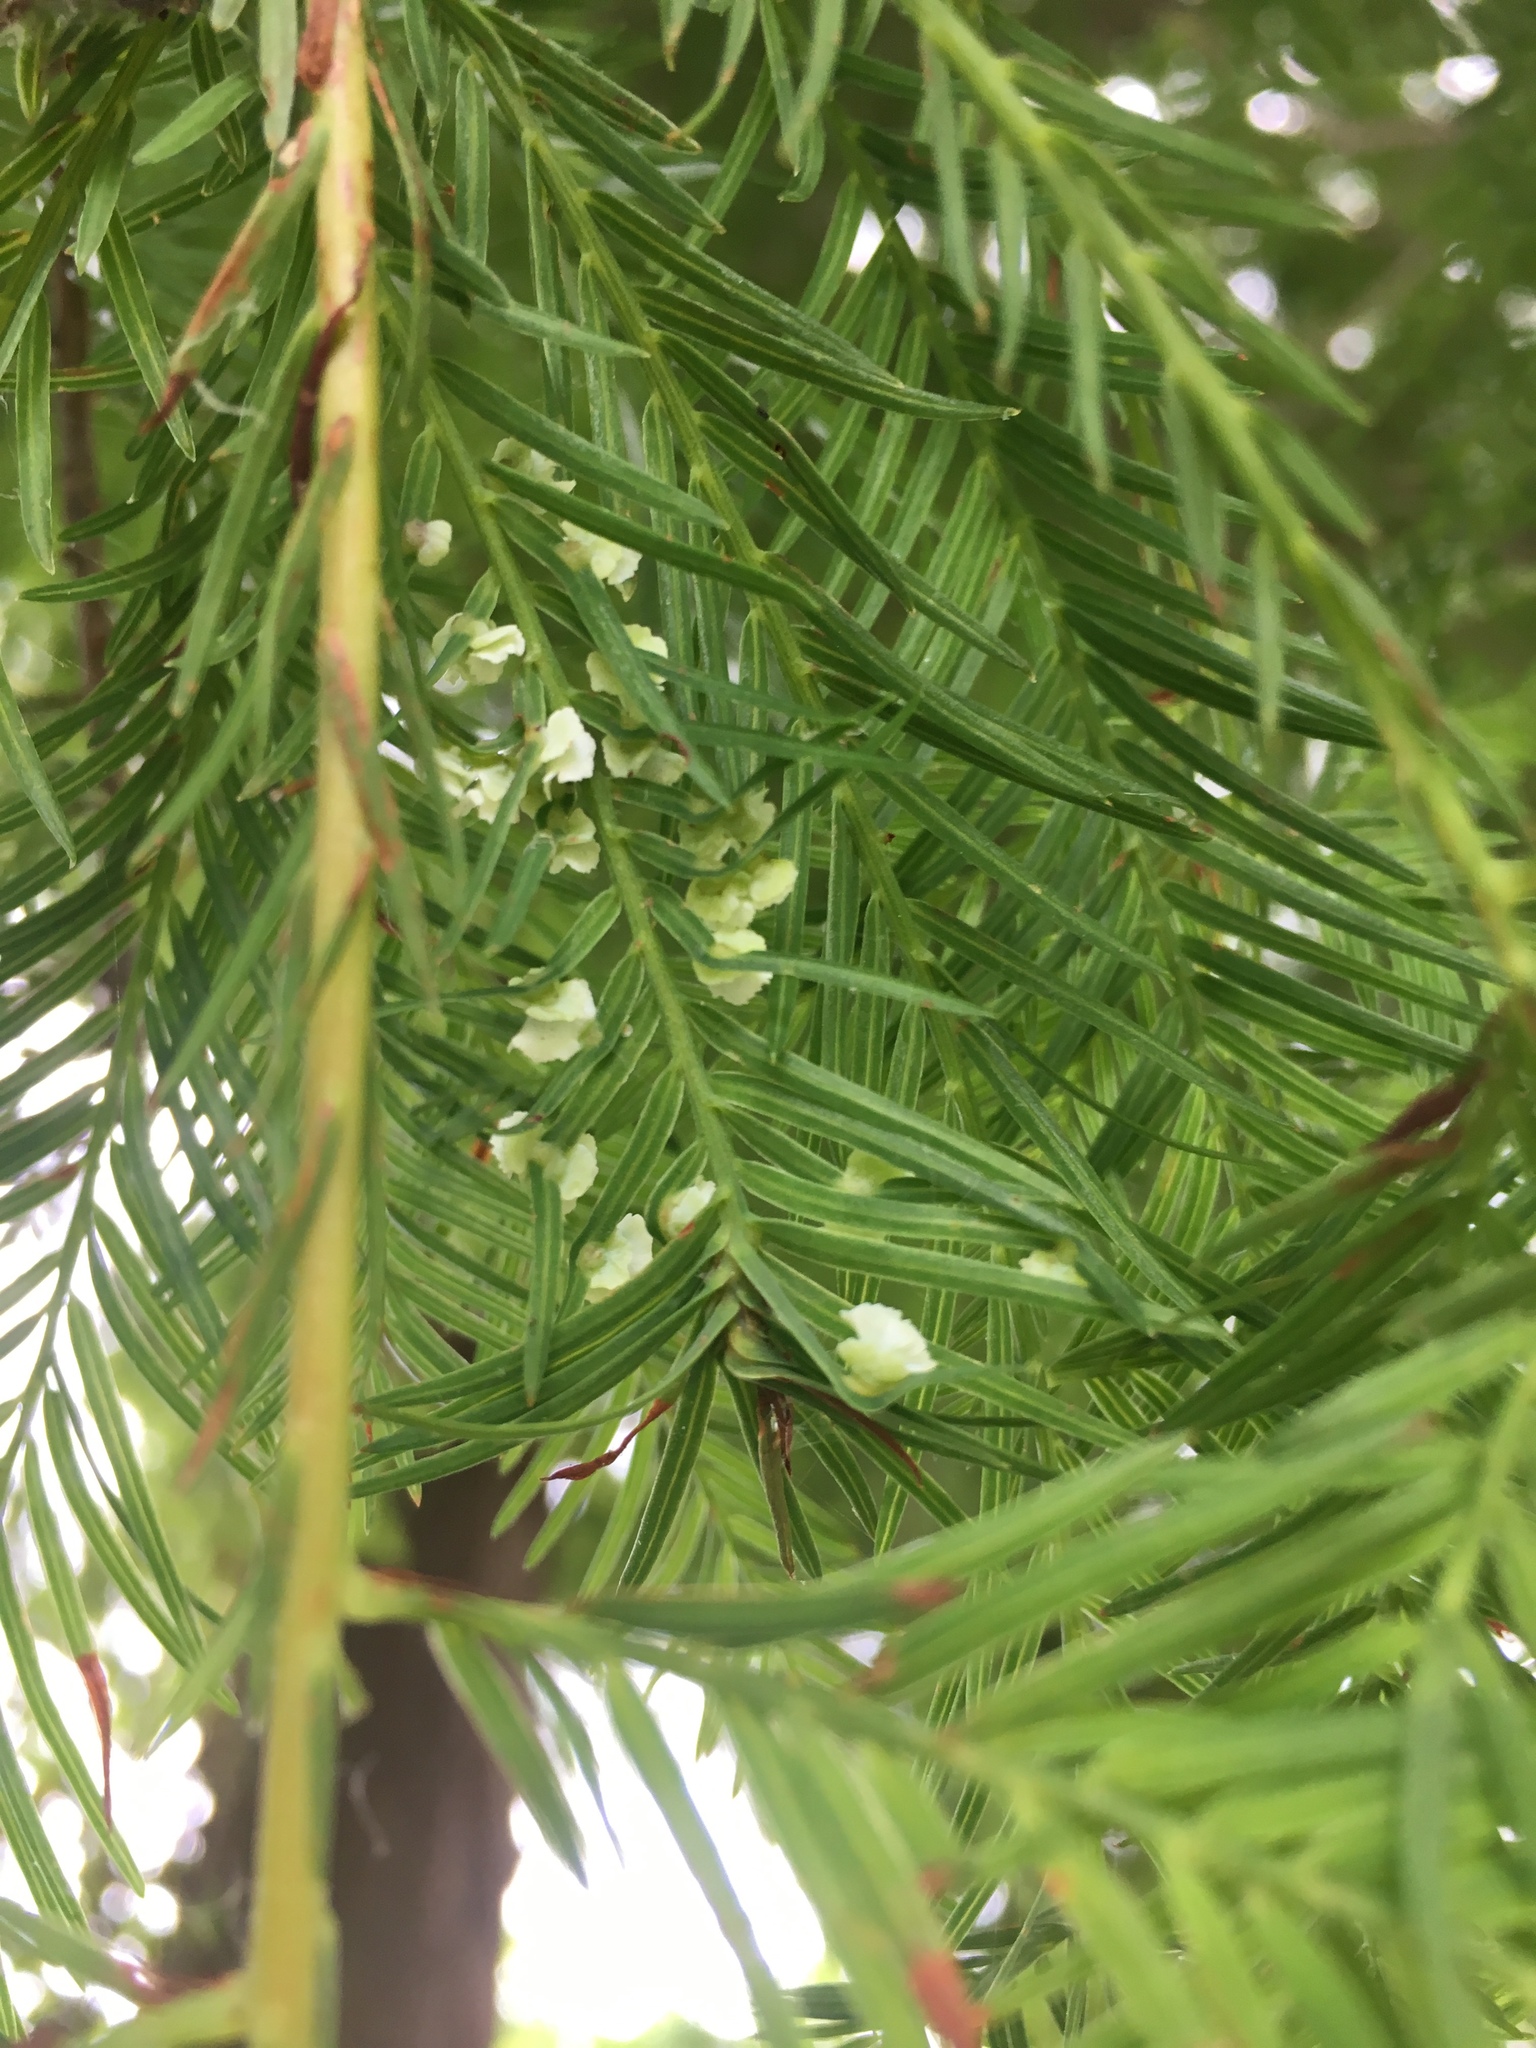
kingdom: Animalia
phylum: Arthropoda
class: Insecta
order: Diptera
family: Cecidomyiidae
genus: Taxodiomyia
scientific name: Taxodiomyia cupressi
